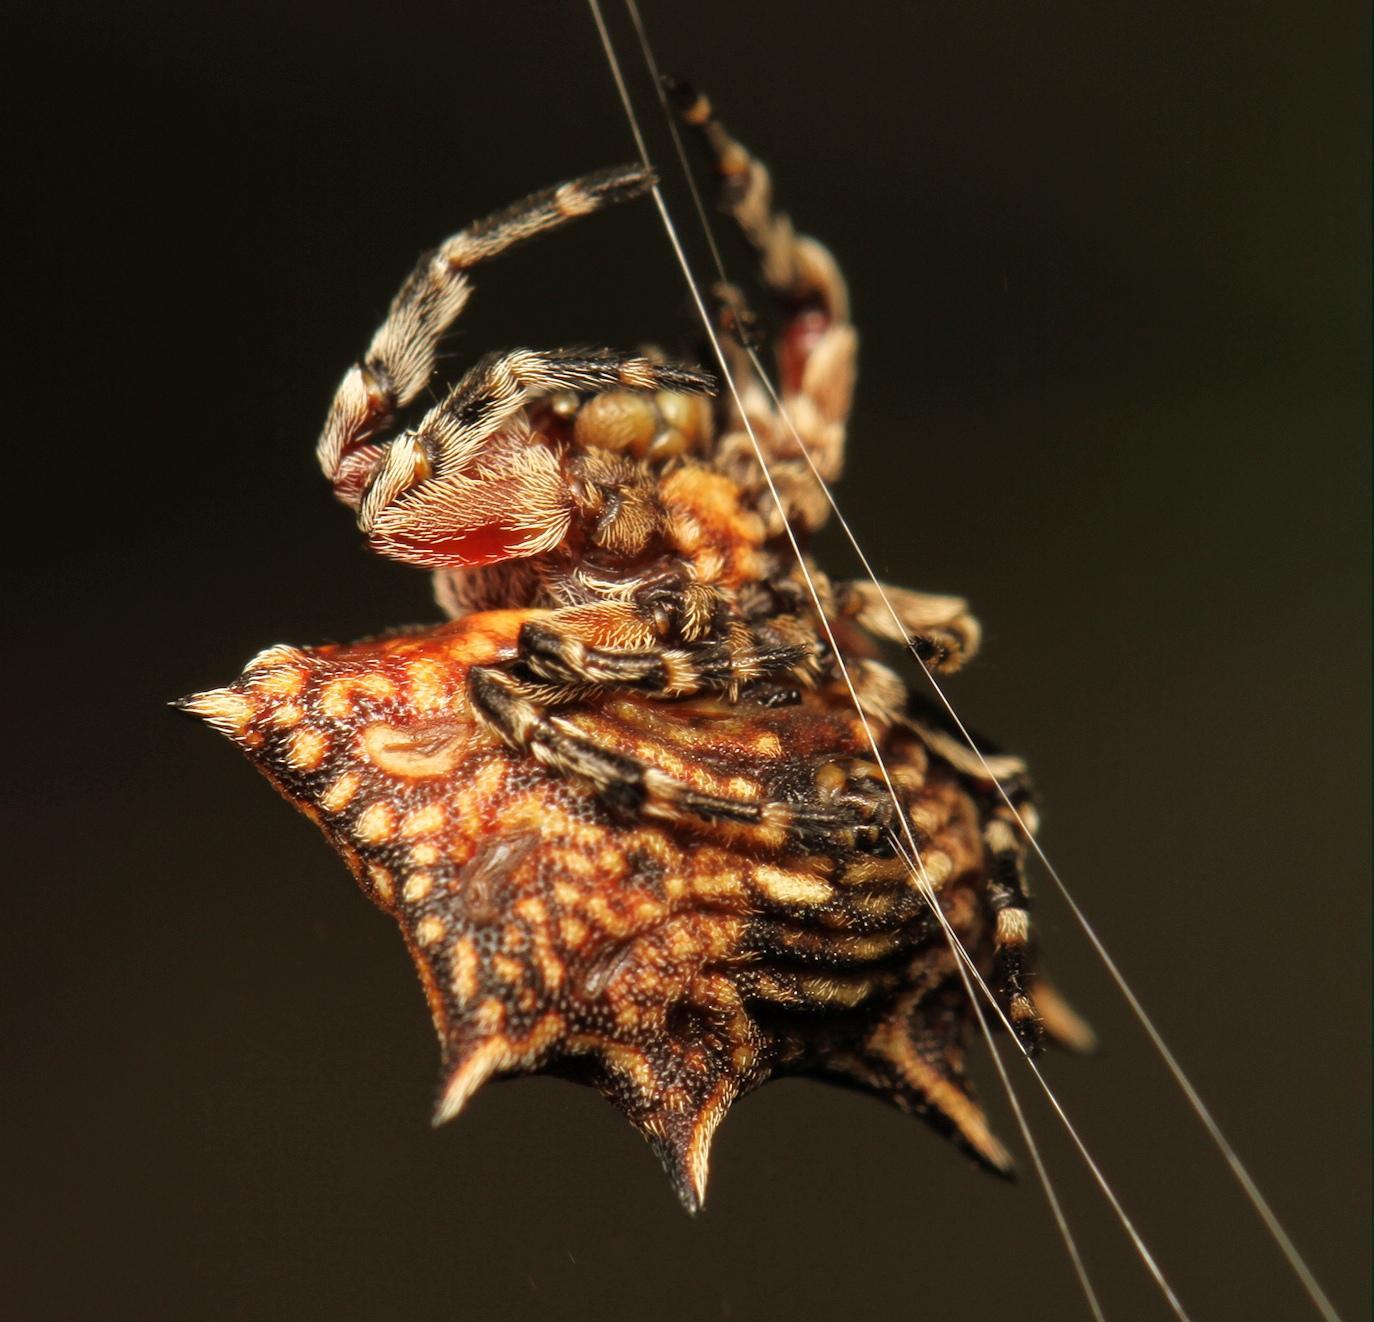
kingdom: Animalia
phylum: Arthropoda
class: Arachnida
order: Araneae
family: Araneidae
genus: Isoxya
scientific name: Isoxya tabulata
